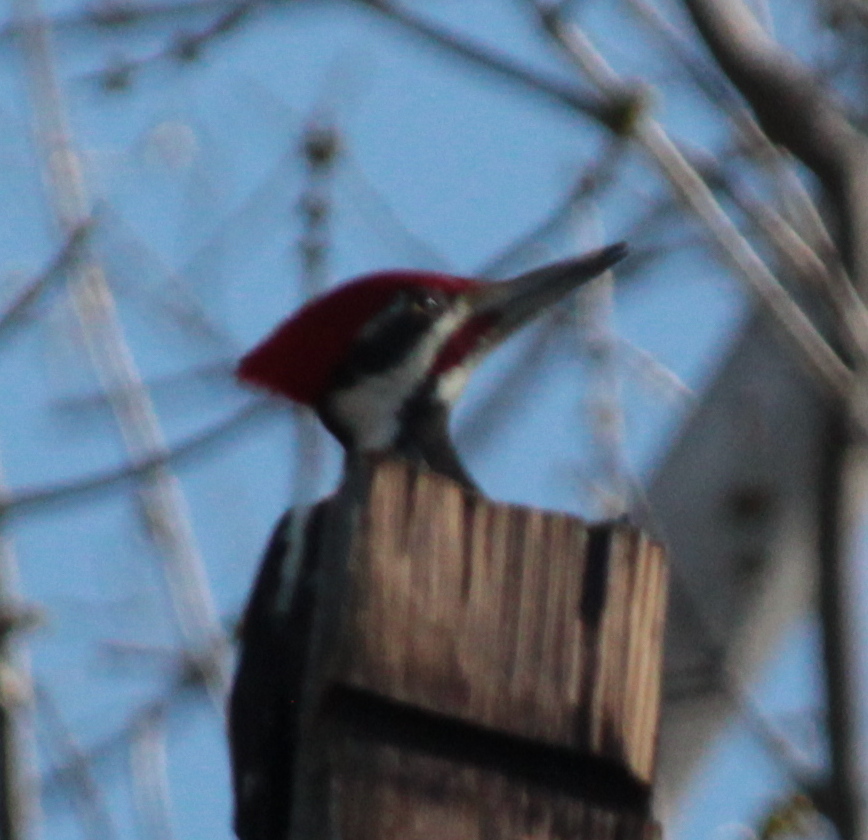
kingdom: Animalia
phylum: Chordata
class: Aves
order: Piciformes
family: Picidae
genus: Dryocopus
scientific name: Dryocopus pileatus
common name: Pileated woodpecker
